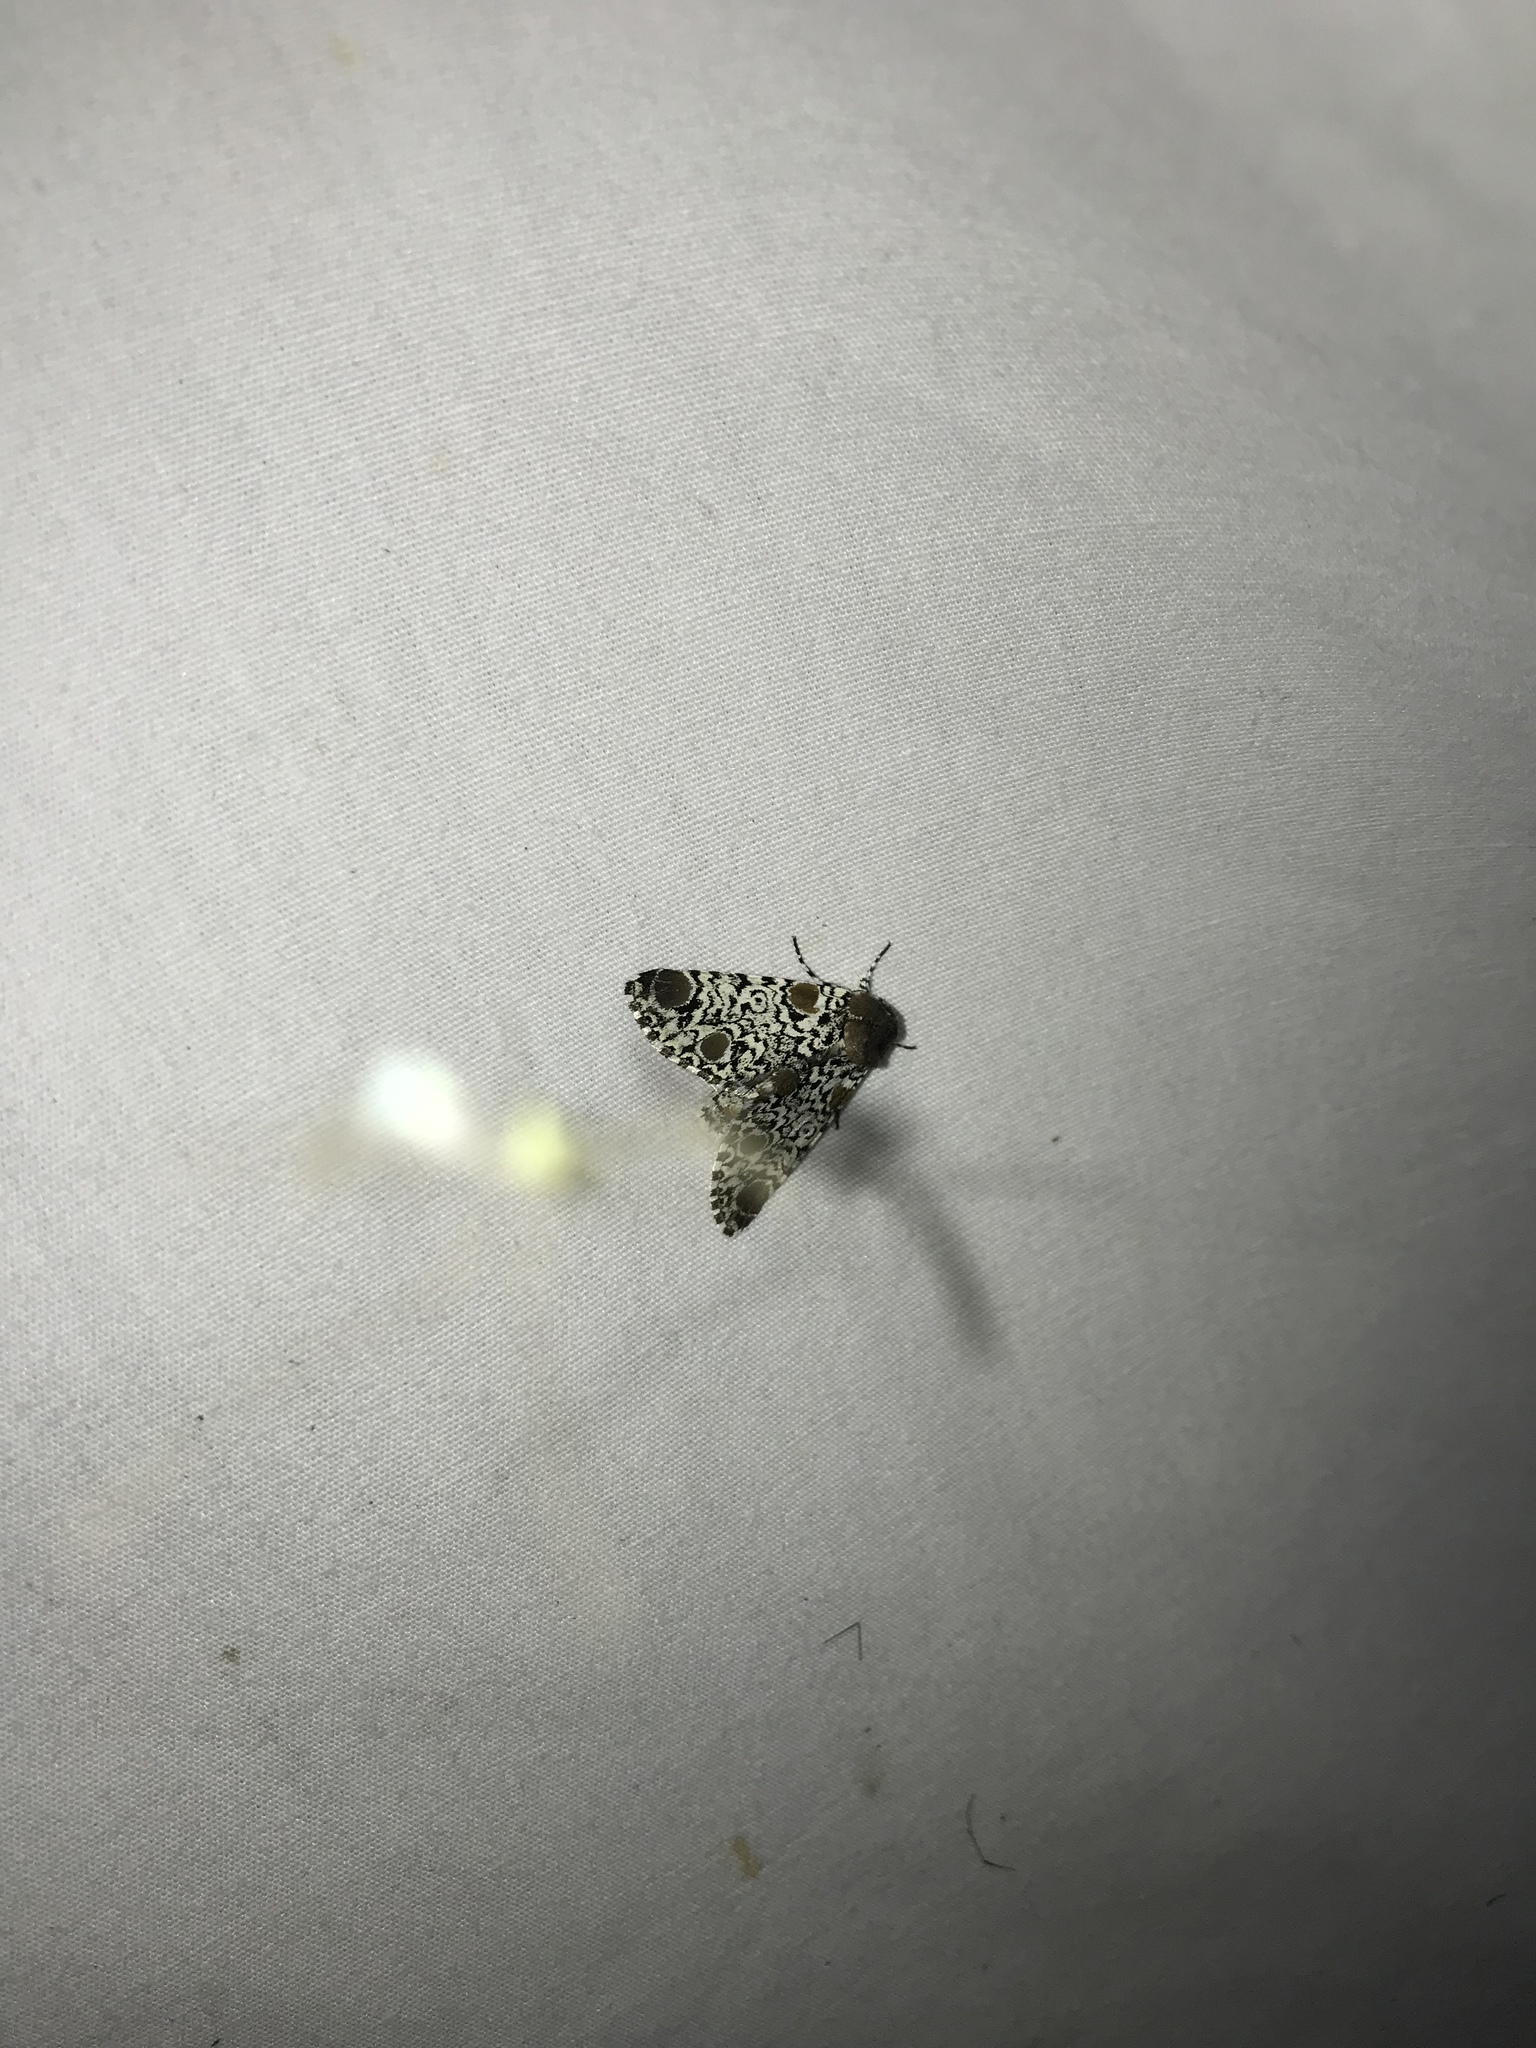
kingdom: Animalia
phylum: Arthropoda
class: Insecta
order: Lepidoptera
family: Noctuidae
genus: Harrisimemna
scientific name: Harrisimemna trisignata
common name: Harris threespot
